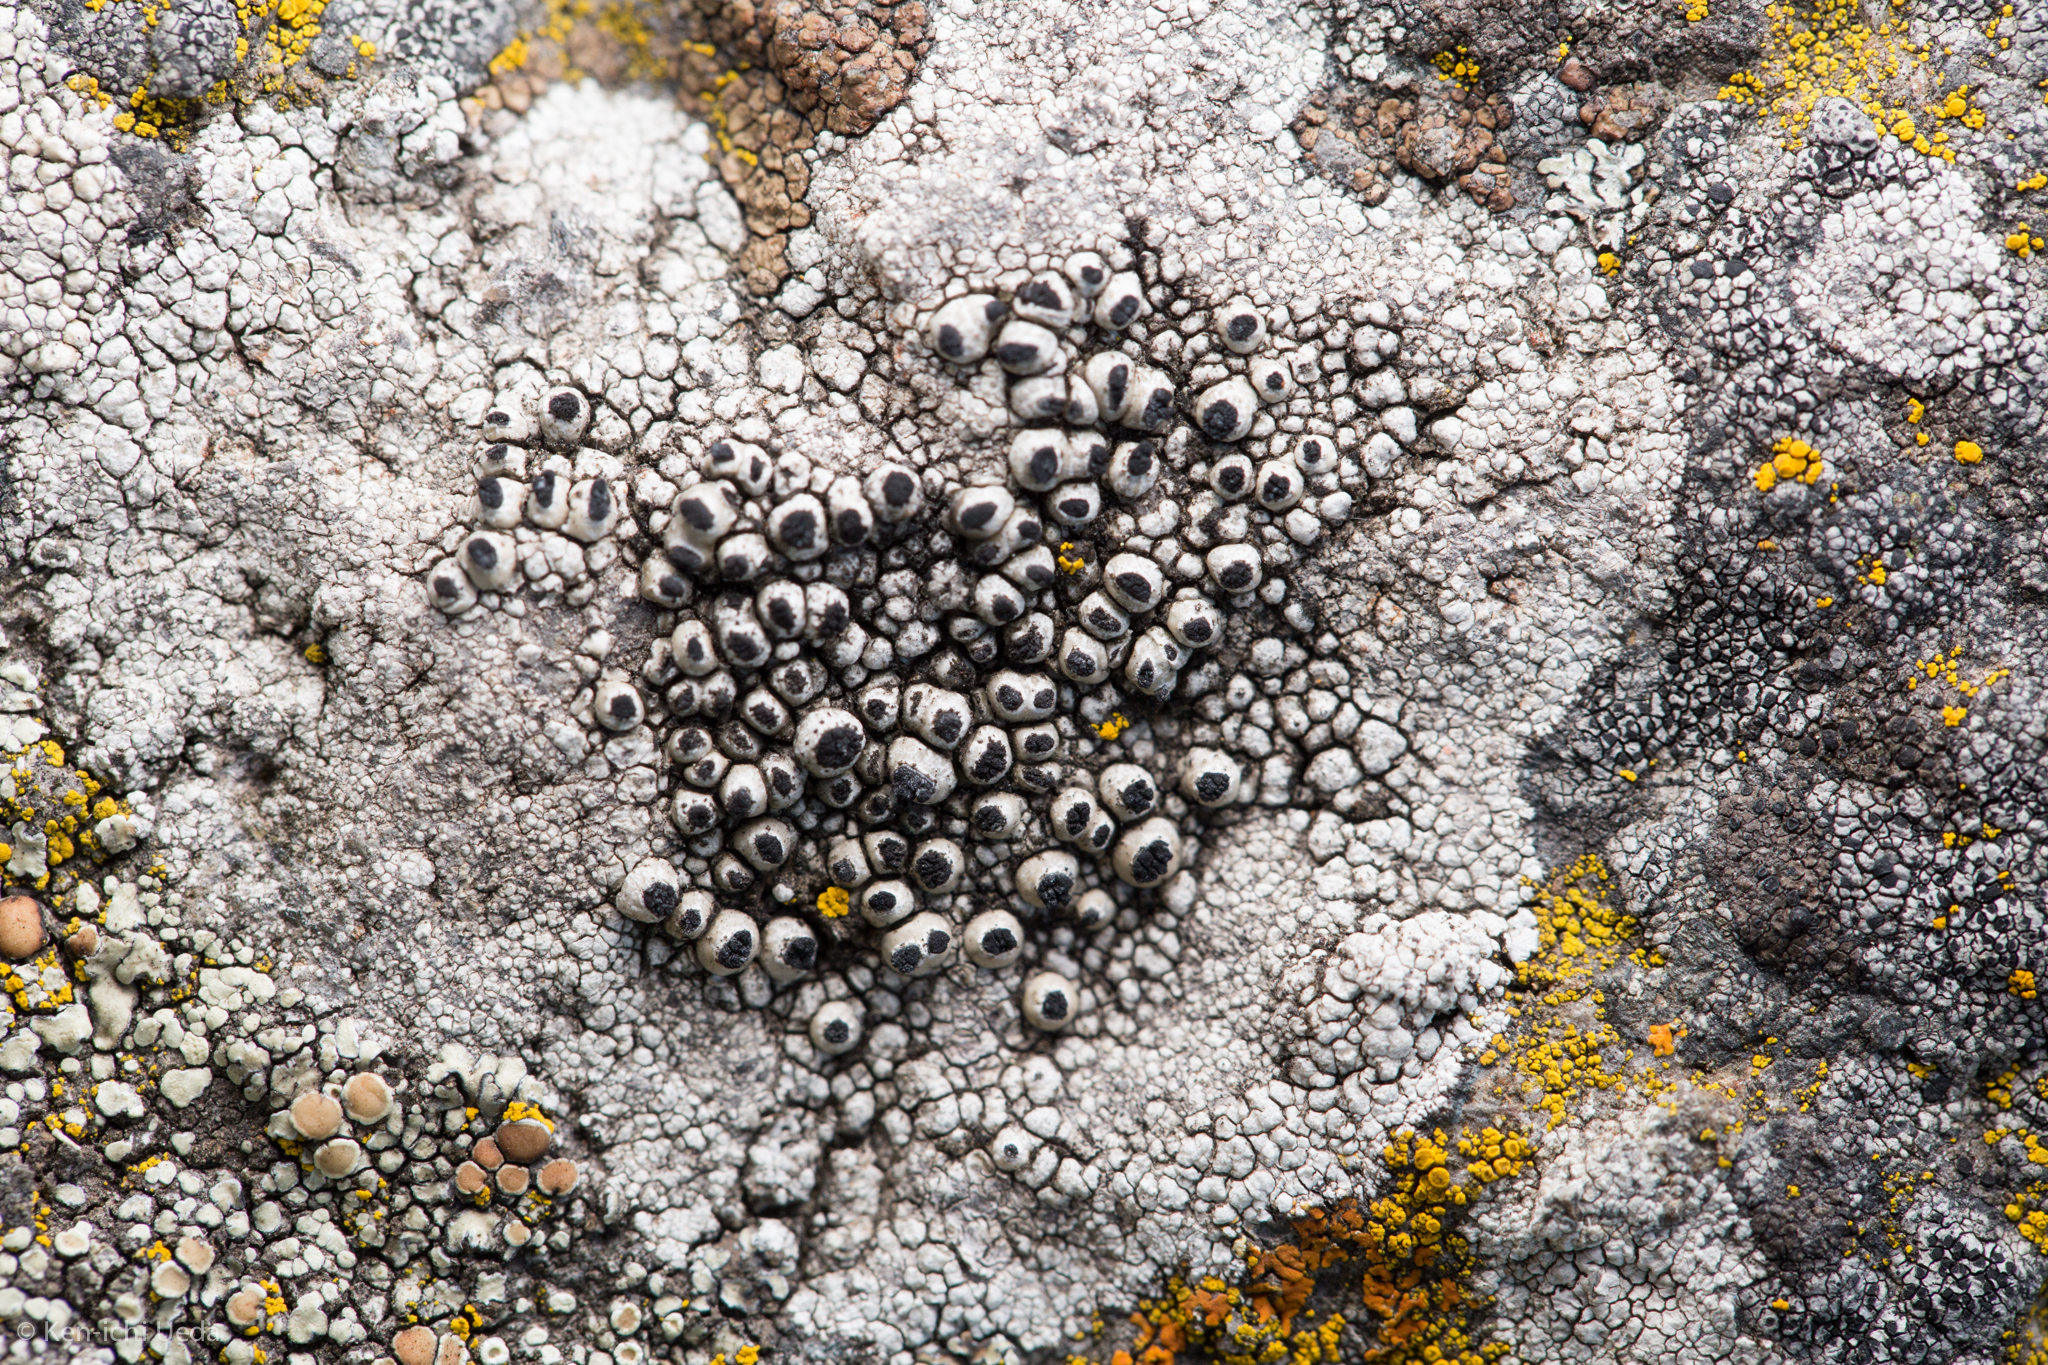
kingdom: Fungi
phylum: Ascomycota
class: Lecanoromycetes
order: Caliciales
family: Caliciaceae
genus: Thelomma
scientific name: Thelomma mammosum
